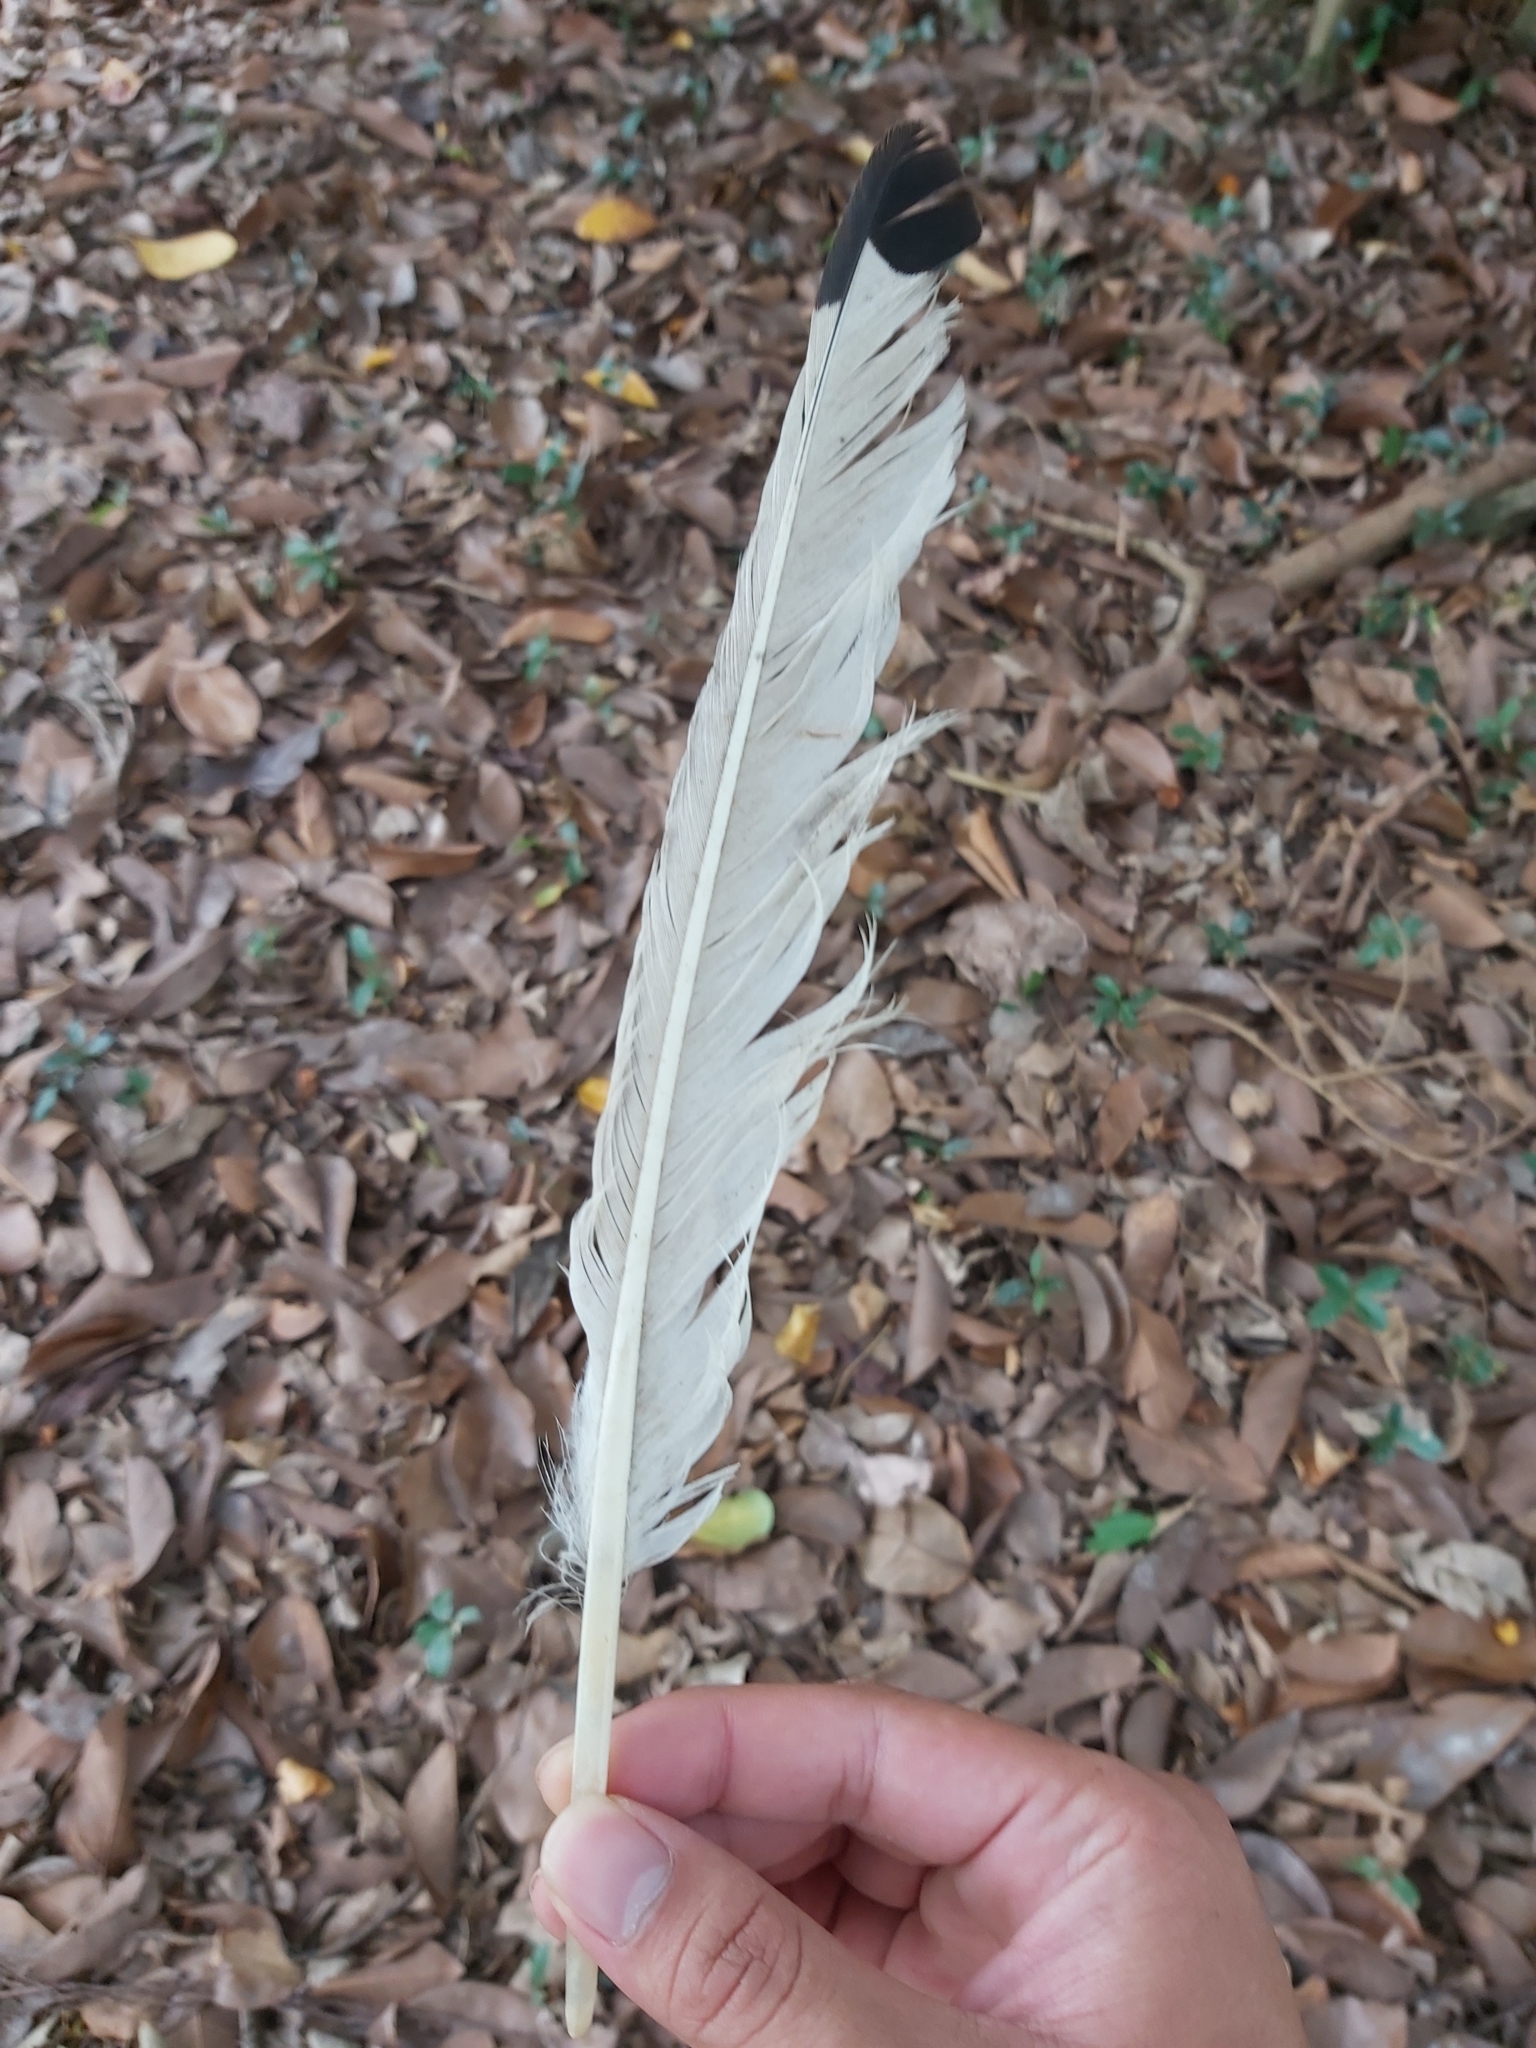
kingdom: Animalia
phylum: Chordata
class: Aves
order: Pelecaniformes
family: Threskiornithidae
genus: Threskiornis
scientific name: Threskiornis molucca
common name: Australian white ibis
